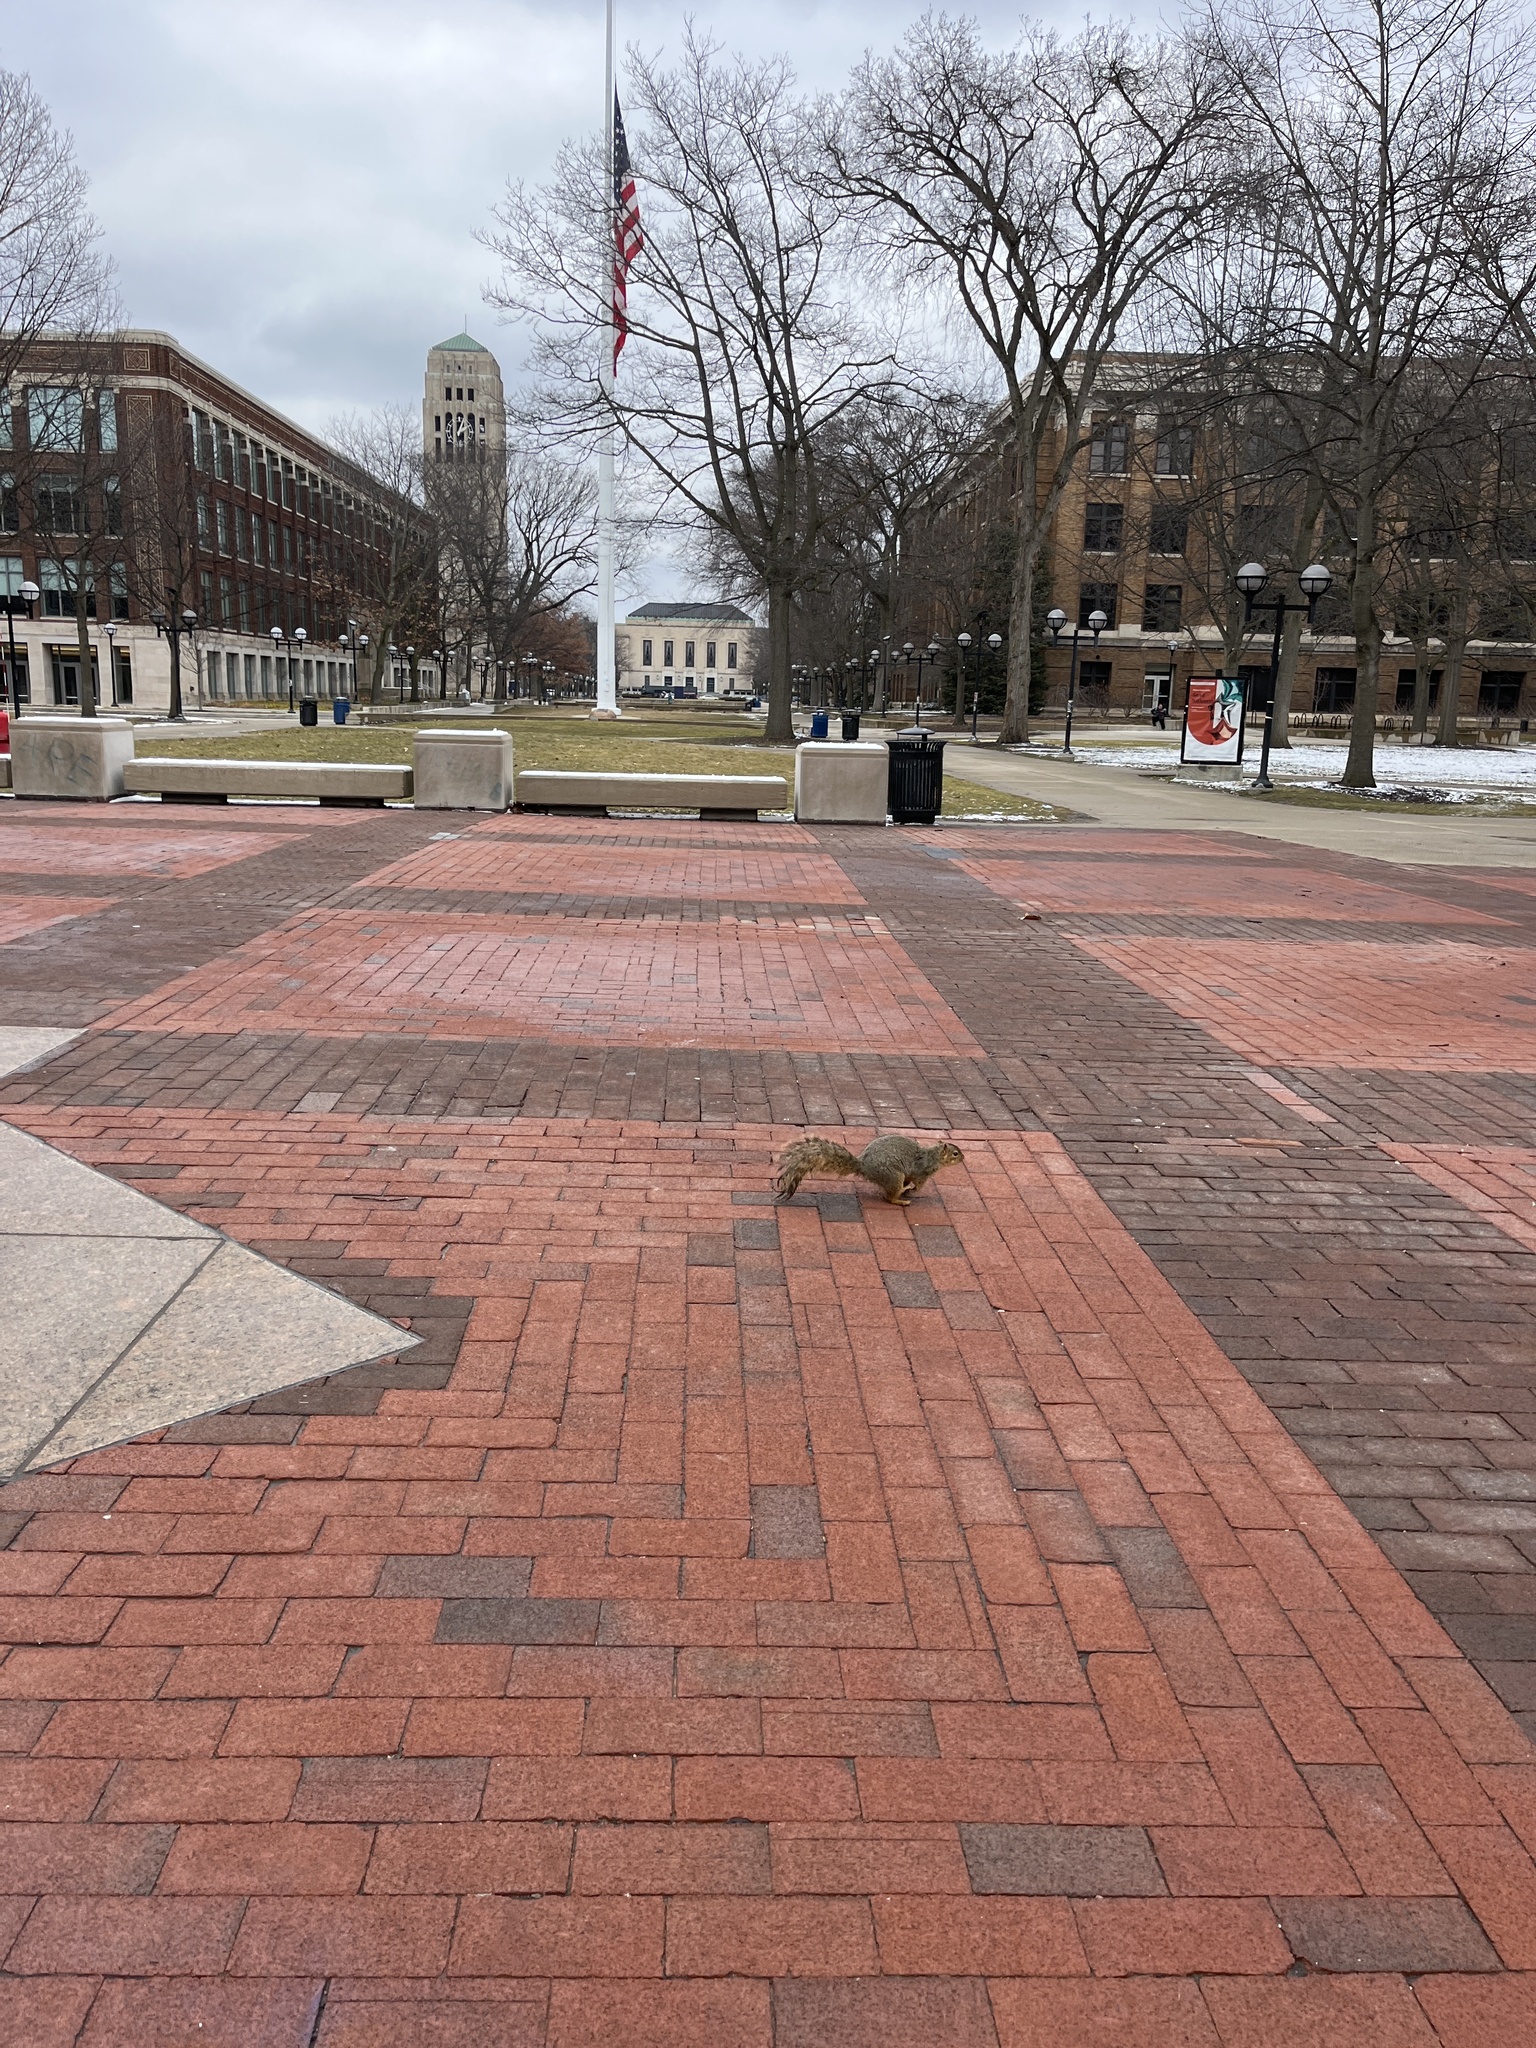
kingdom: Animalia
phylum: Chordata
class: Mammalia
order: Rodentia
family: Sciuridae
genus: Sciurus
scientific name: Sciurus niger
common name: Fox squirrel
